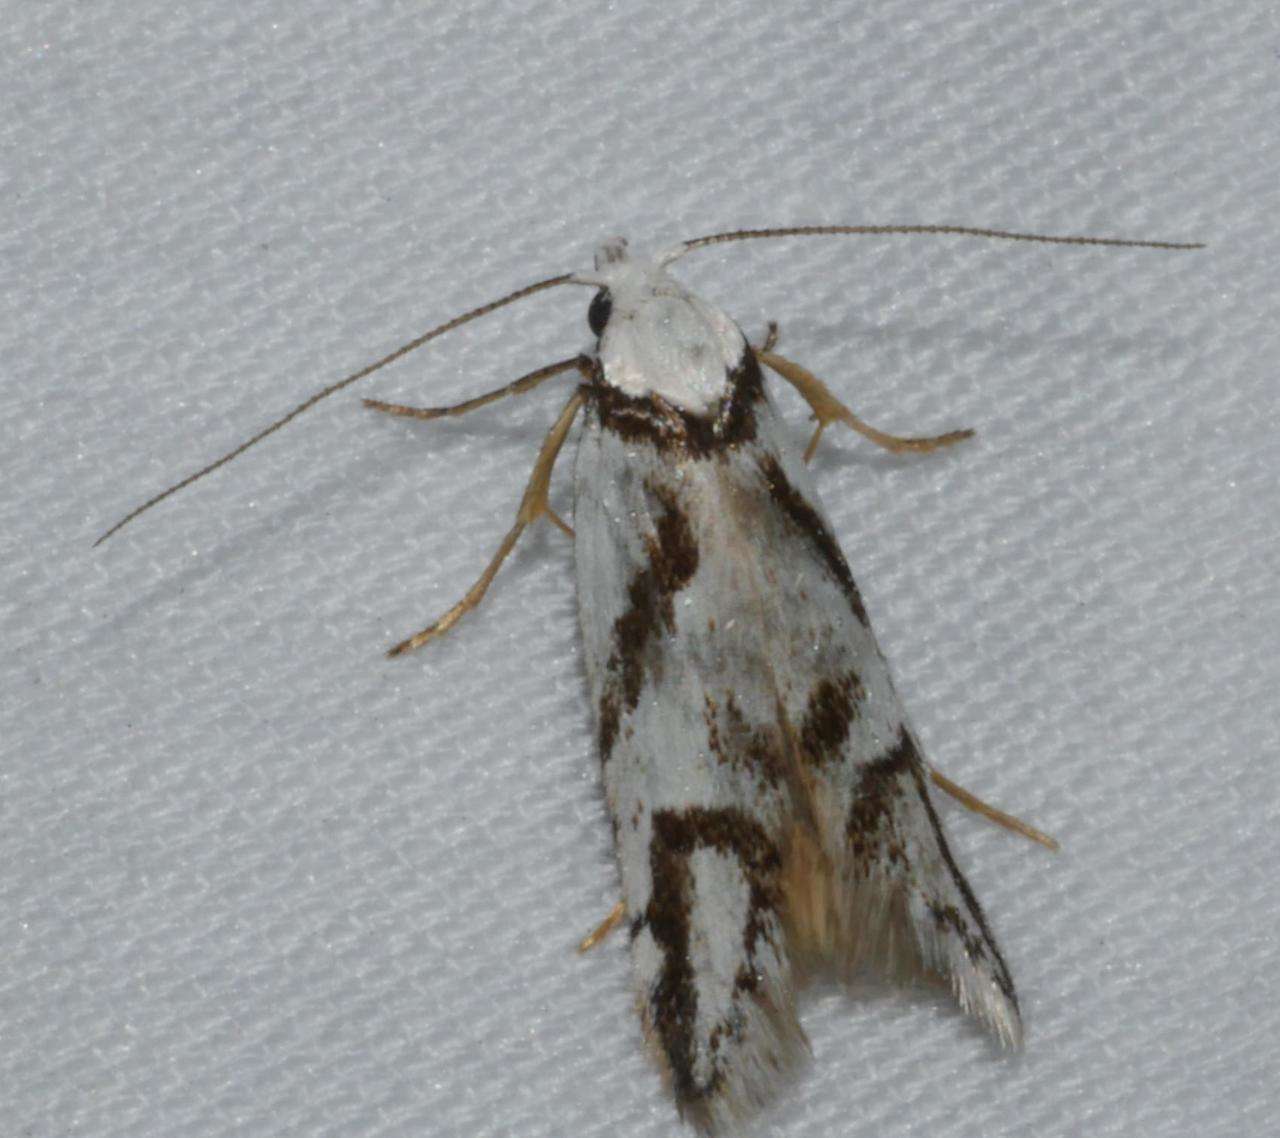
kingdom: Animalia
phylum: Arthropoda
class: Insecta
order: Lepidoptera
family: Oecophoridae
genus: Oxythecta
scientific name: Oxythecta acceptella
